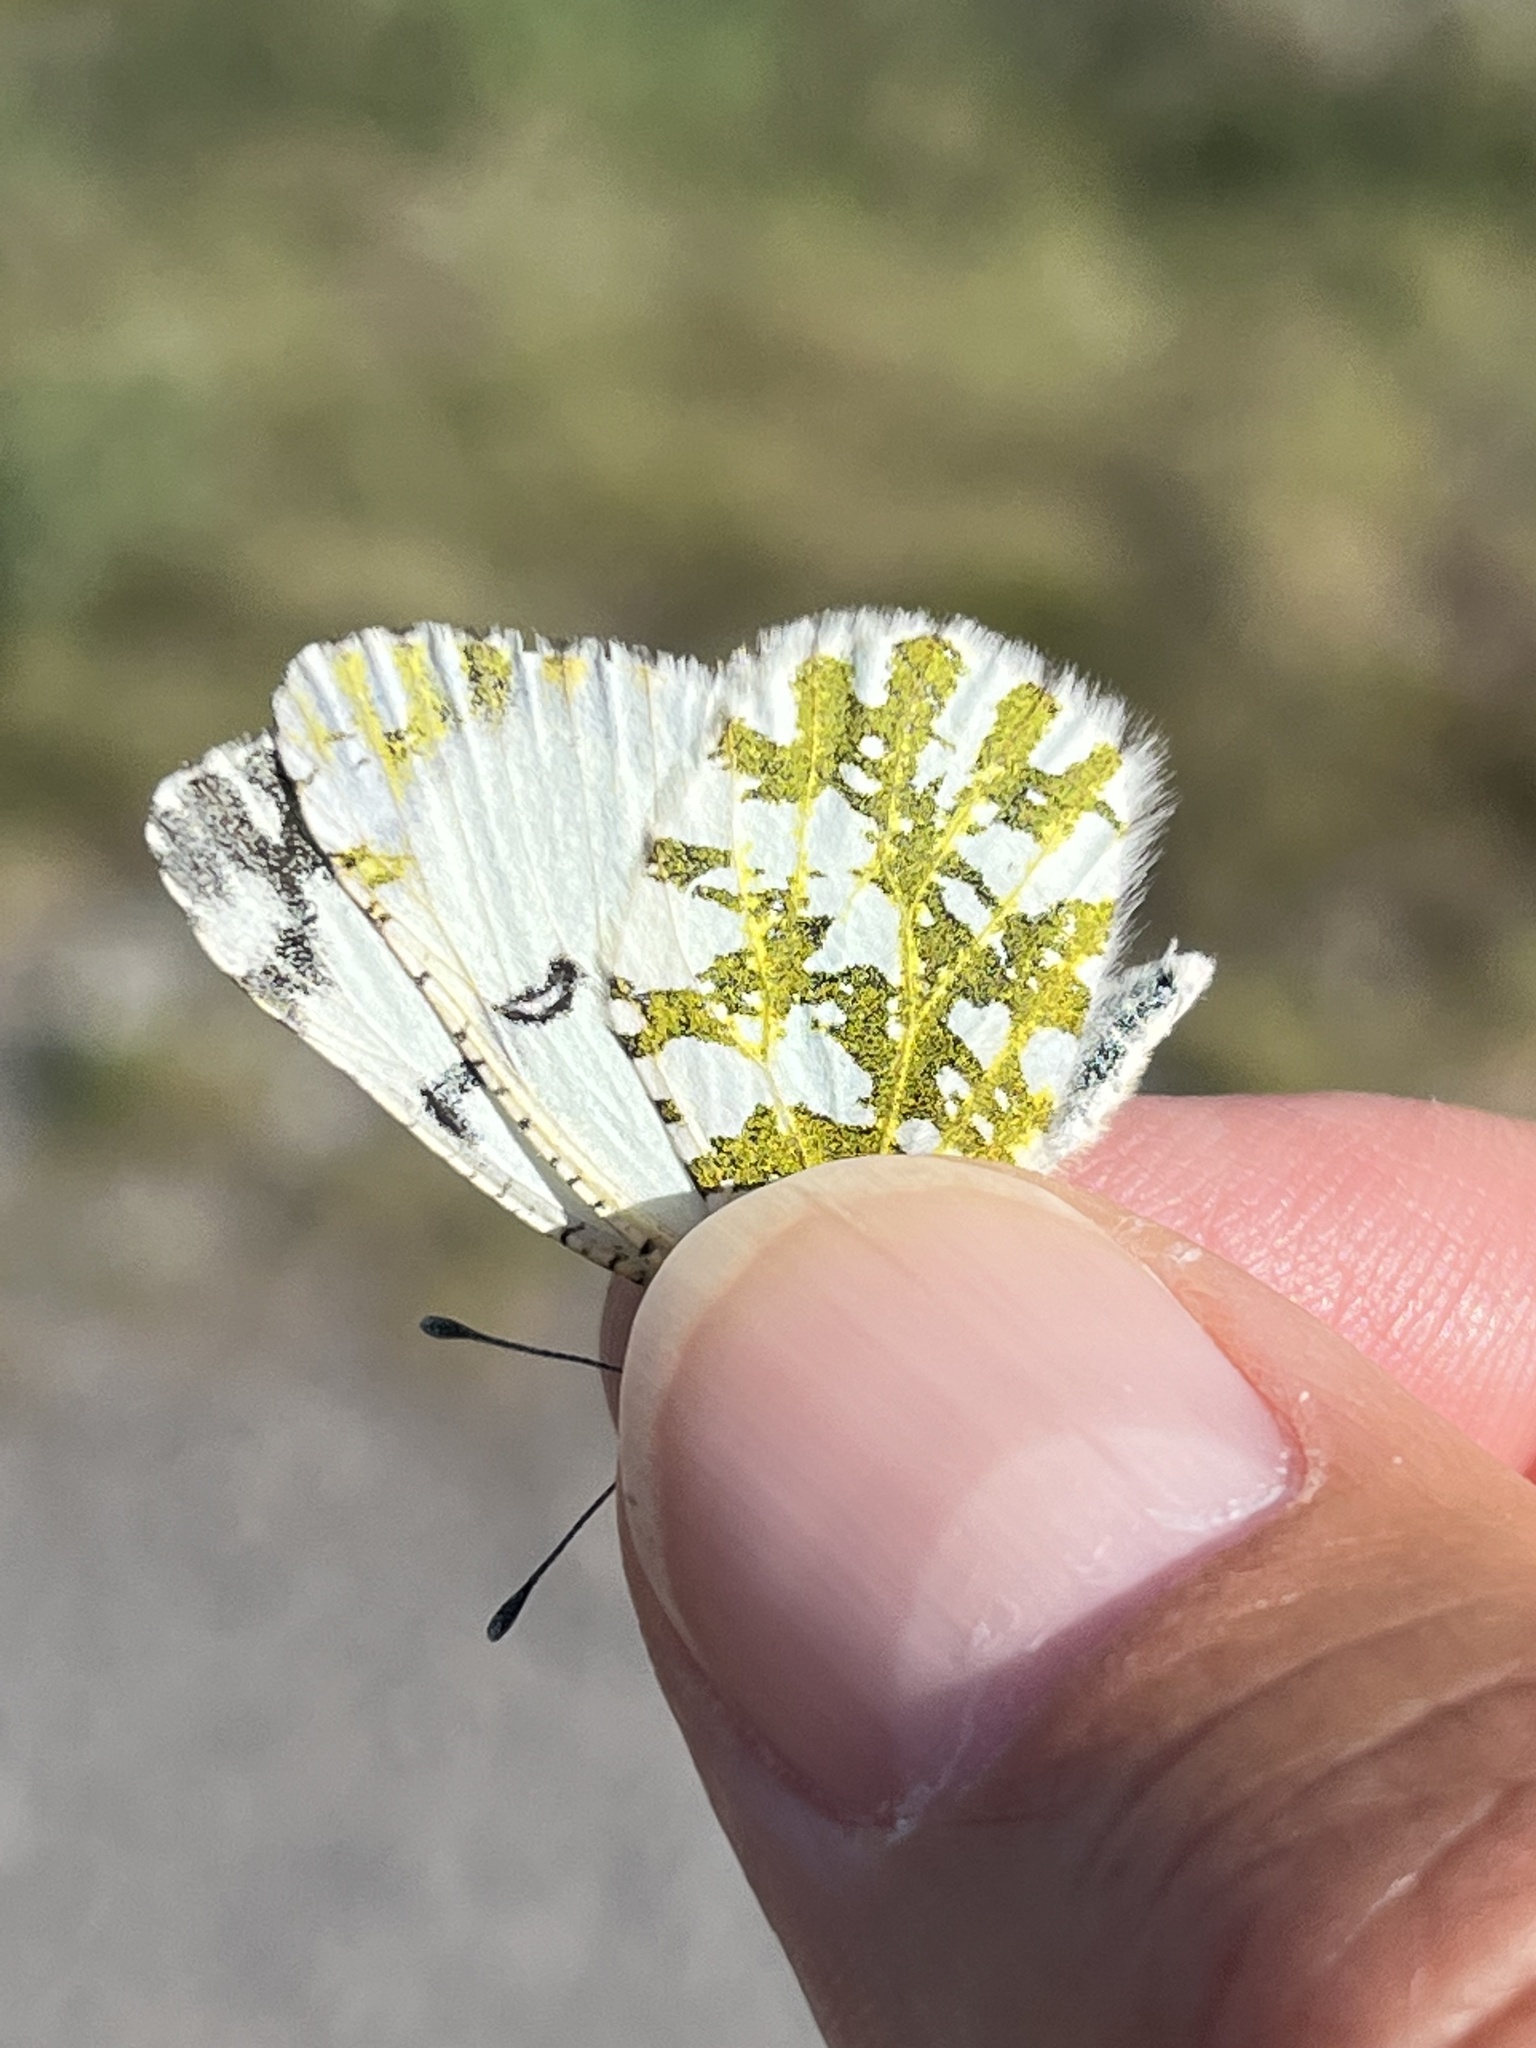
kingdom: Animalia
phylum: Arthropoda
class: Insecta
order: Lepidoptera
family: Pieridae
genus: Euchloe
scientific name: Euchloe ausonides
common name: Creamy marblewing
